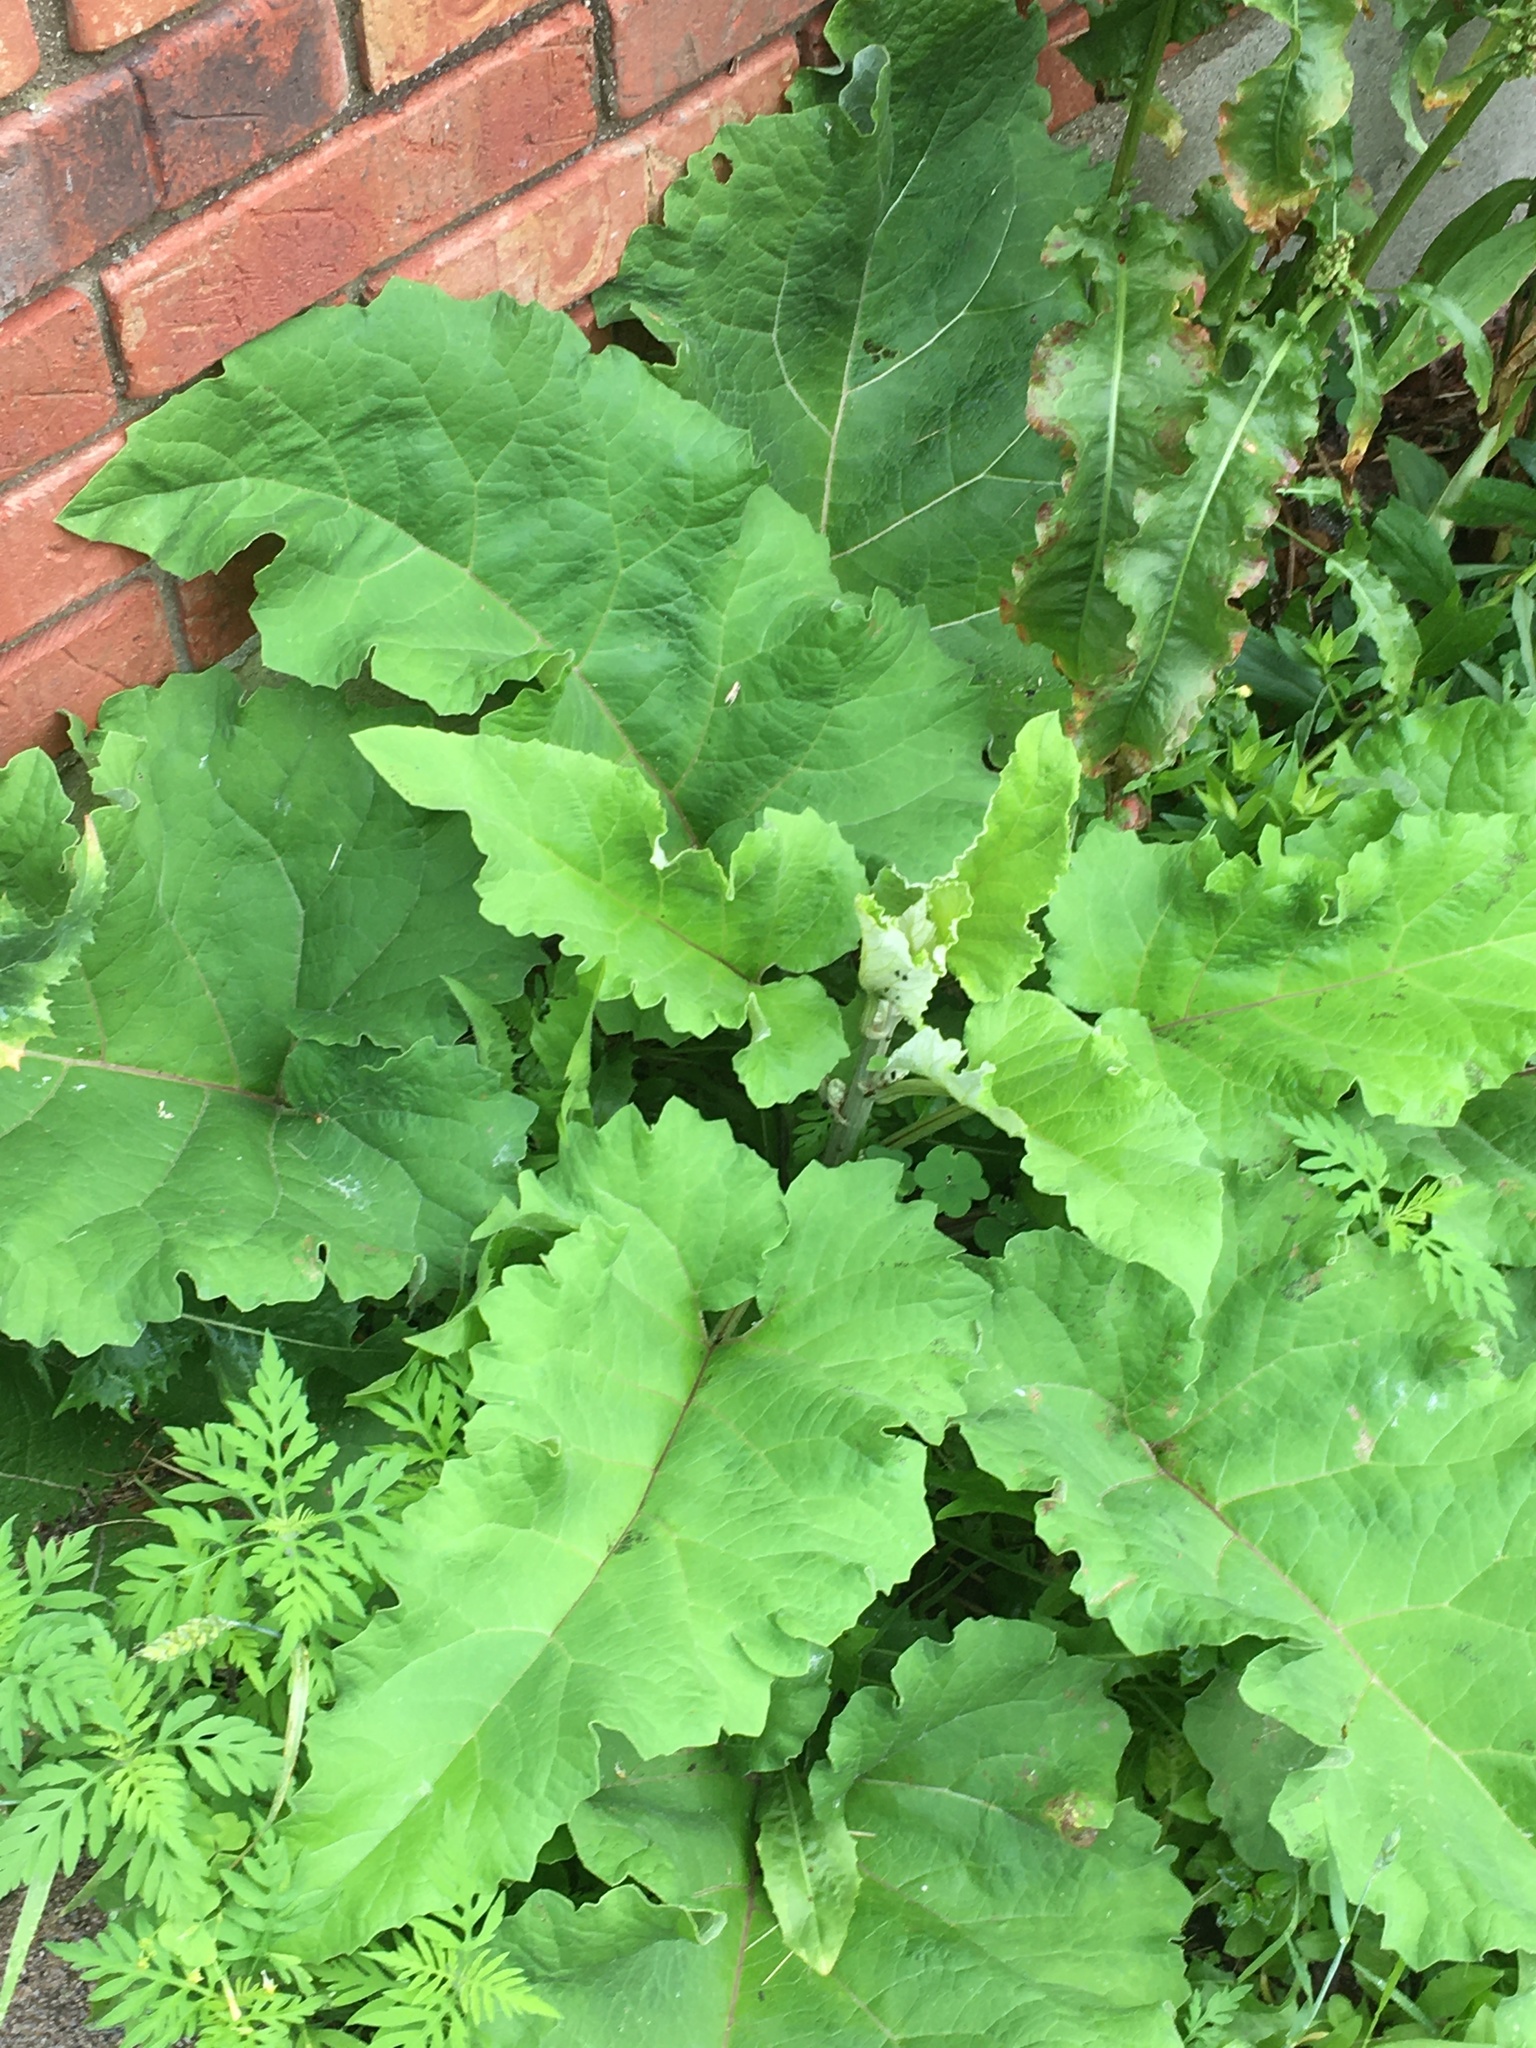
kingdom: Plantae
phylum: Tracheophyta
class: Magnoliopsida
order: Asterales
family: Asteraceae
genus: Arctium
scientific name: Arctium lappa
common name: Greater burdock
